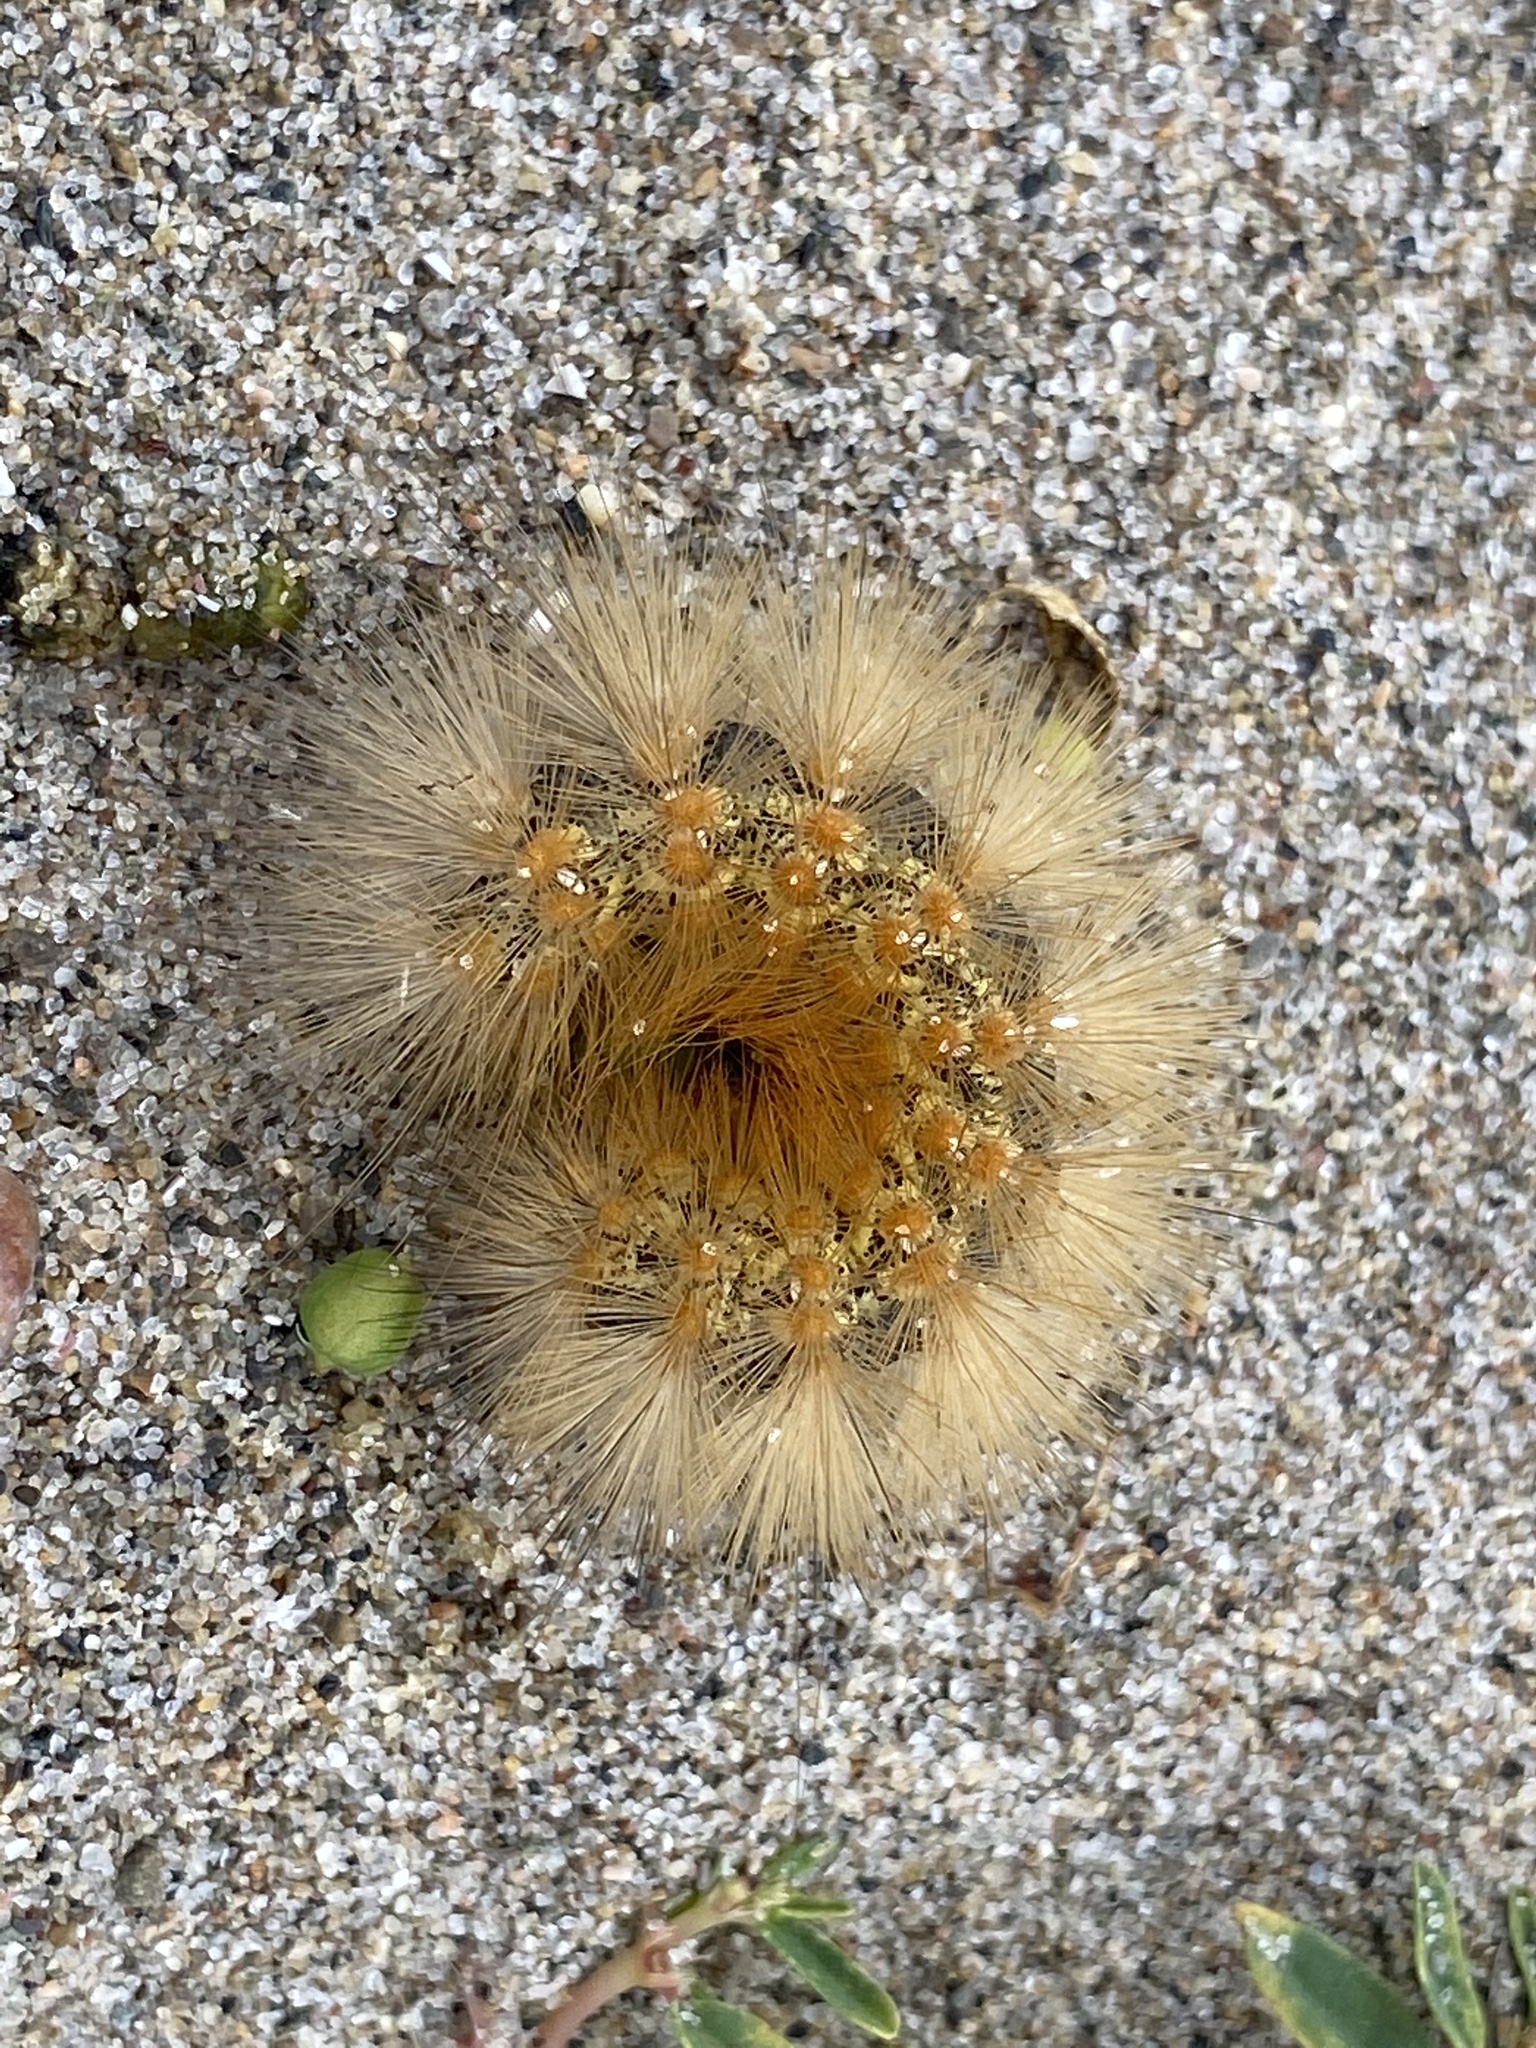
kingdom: Animalia
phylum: Arthropoda
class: Insecta
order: Lepidoptera
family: Erebidae
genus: Estigmene
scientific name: Estigmene acrea
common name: Salt marsh moth
